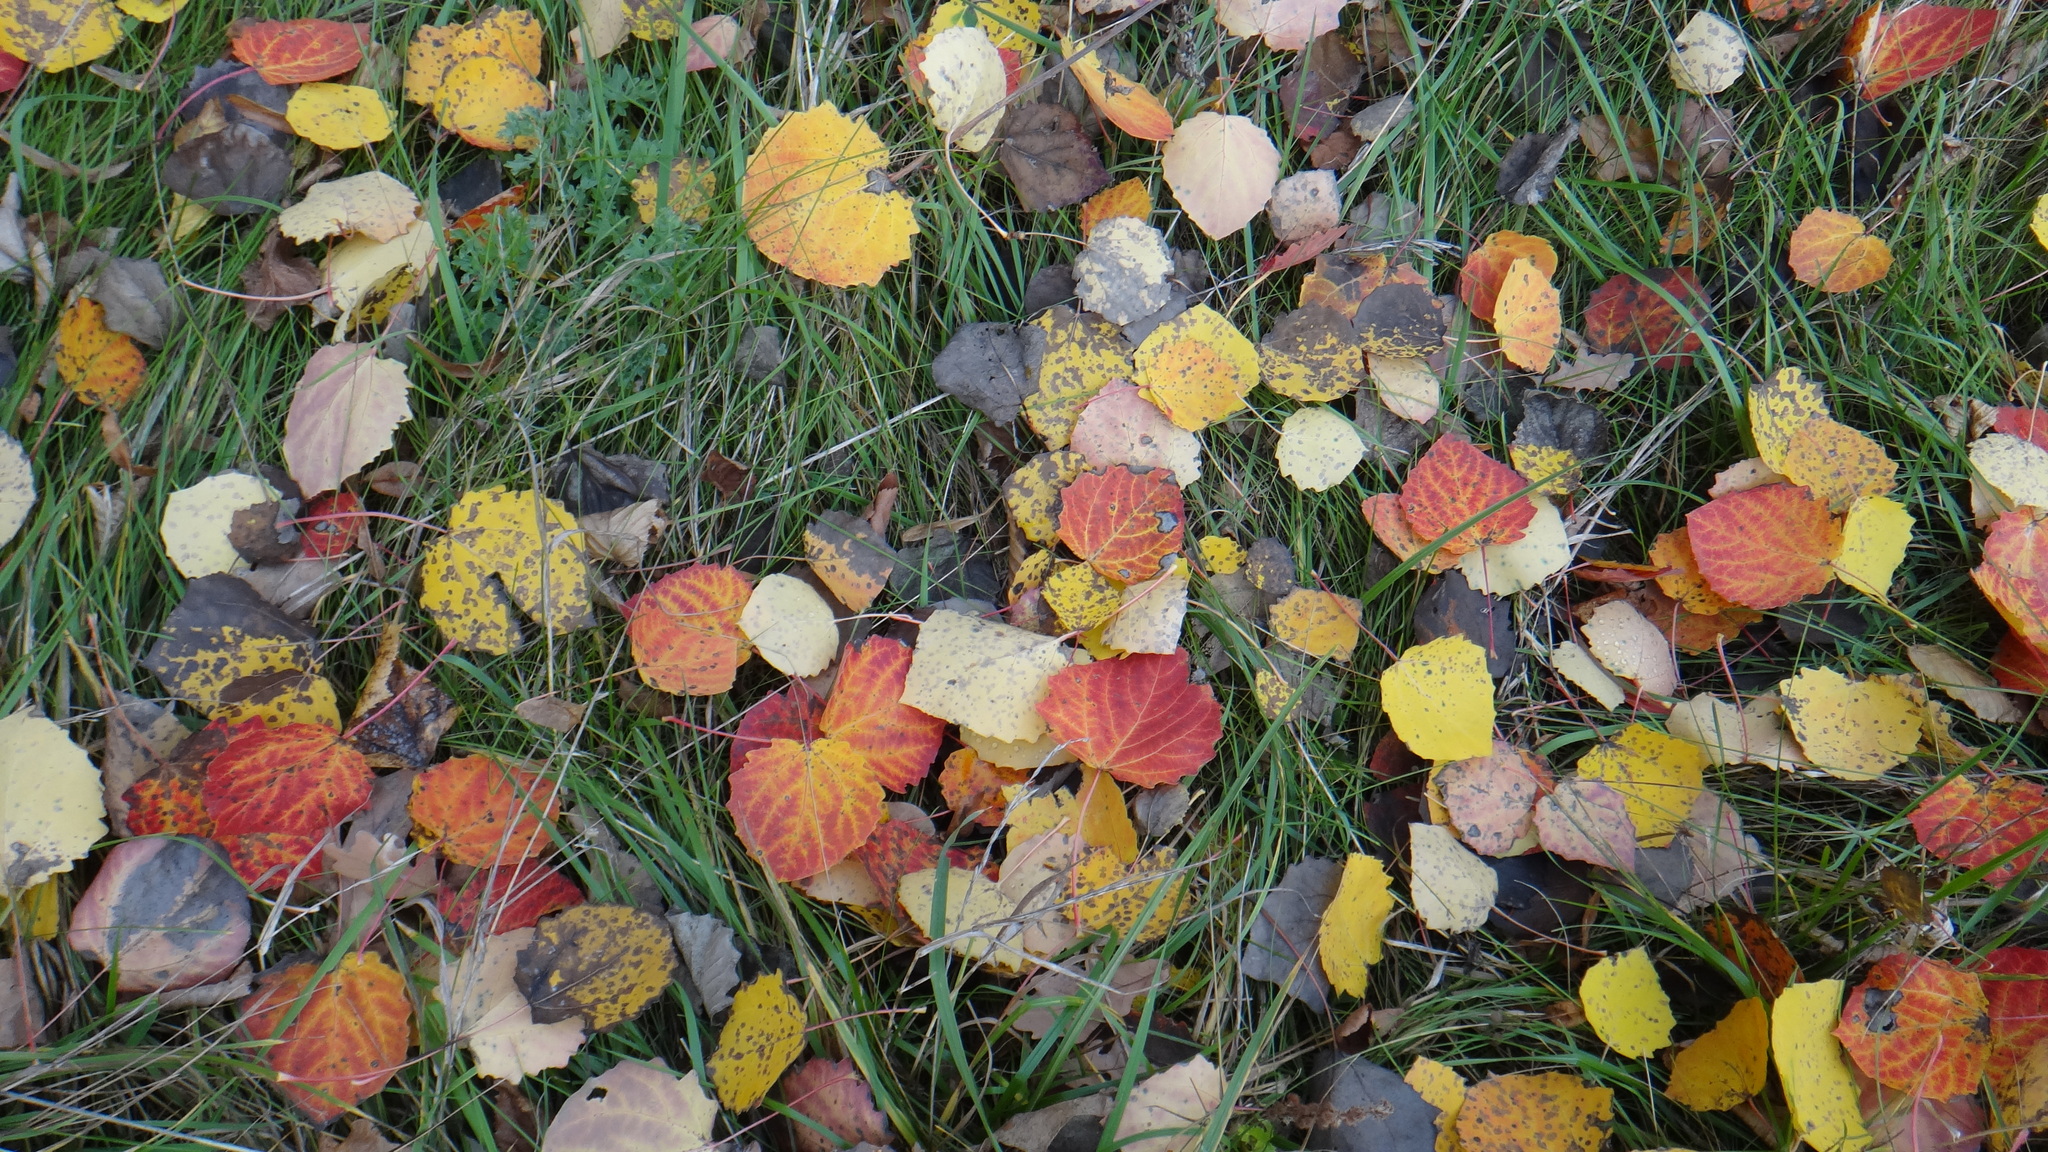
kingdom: Plantae
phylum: Tracheophyta
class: Magnoliopsida
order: Malpighiales
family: Salicaceae
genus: Populus
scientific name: Populus tremula
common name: European aspen
